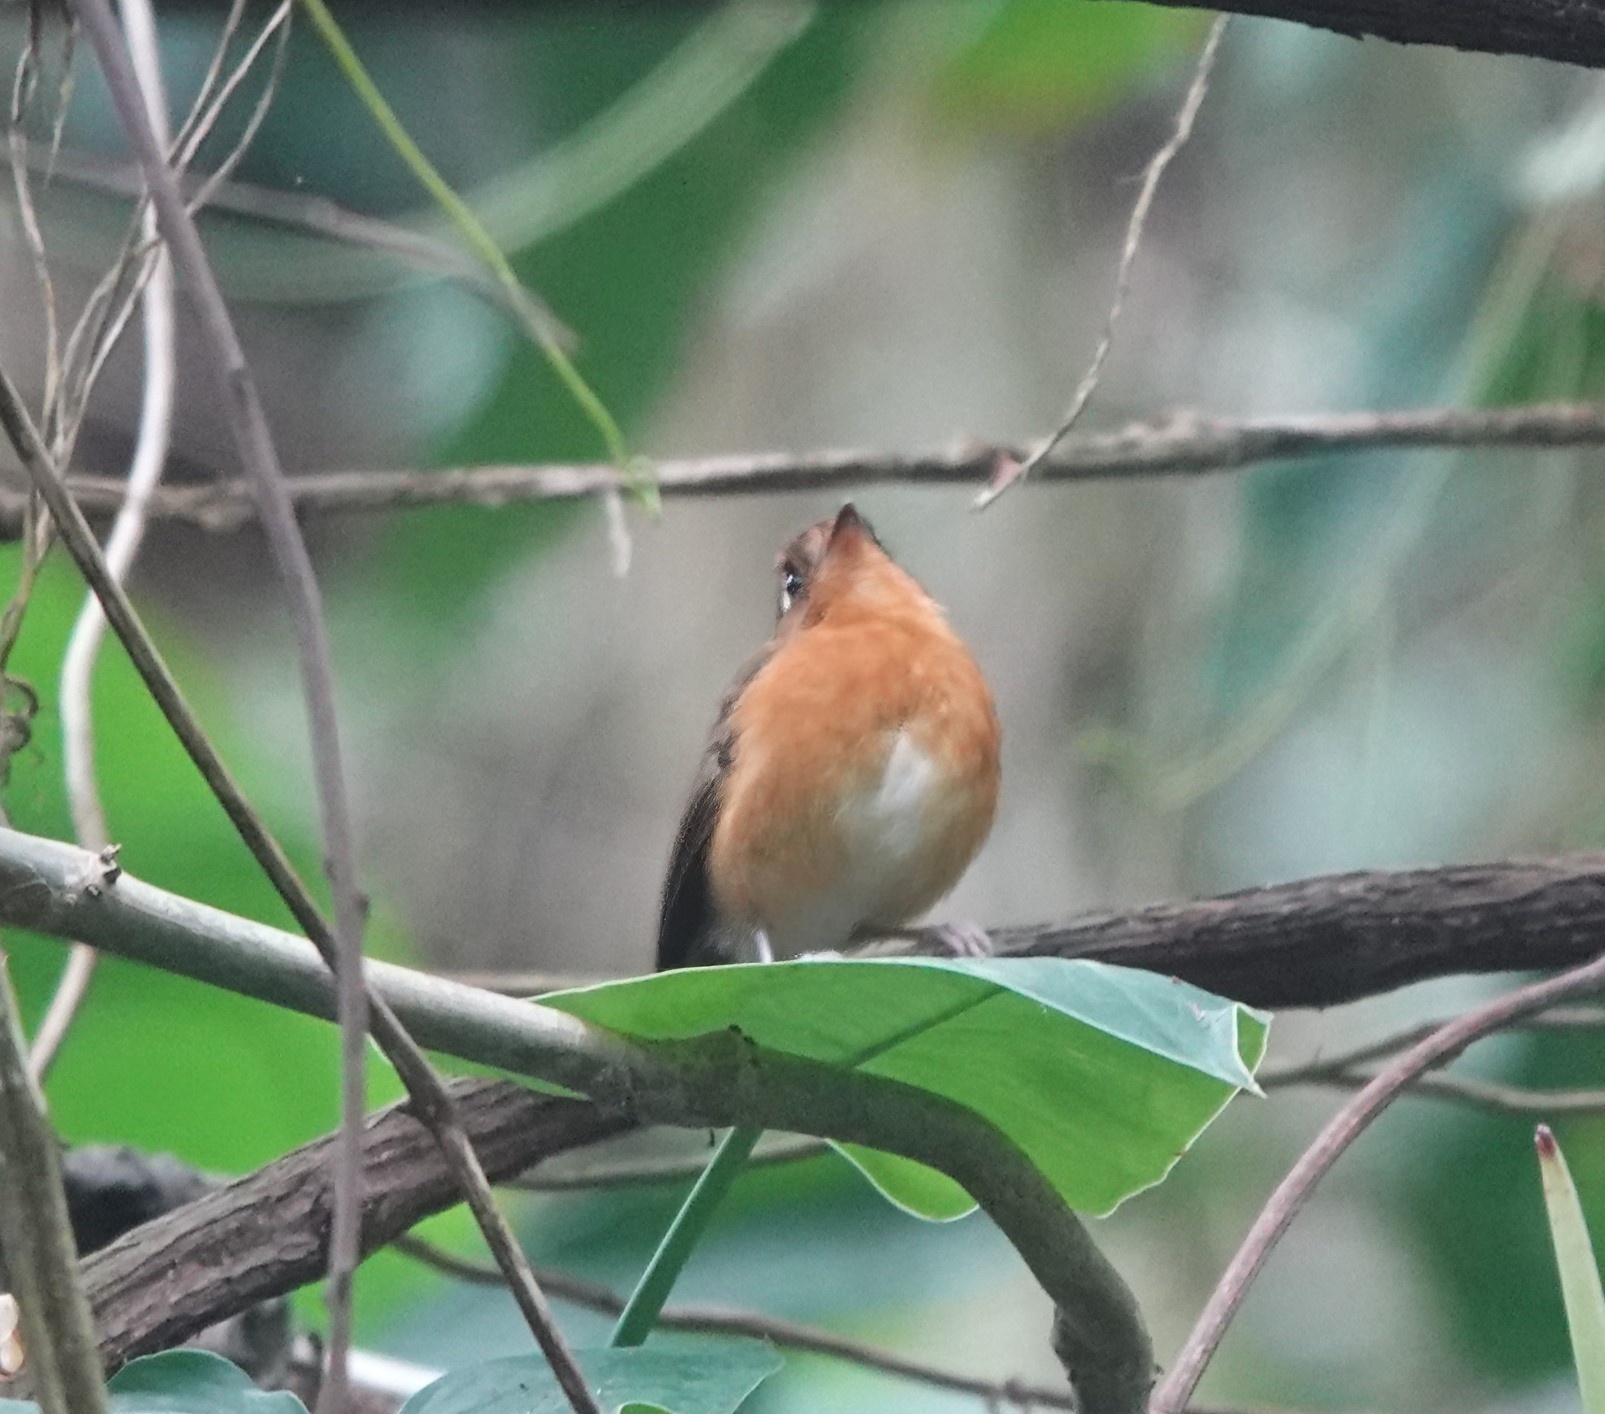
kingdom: Animalia
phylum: Chordata
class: Aves
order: Passeriformes
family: Grallariidae
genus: Grallaricula
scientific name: Grallaricula ferrugineipectus
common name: Rusty-breasted antpitta
